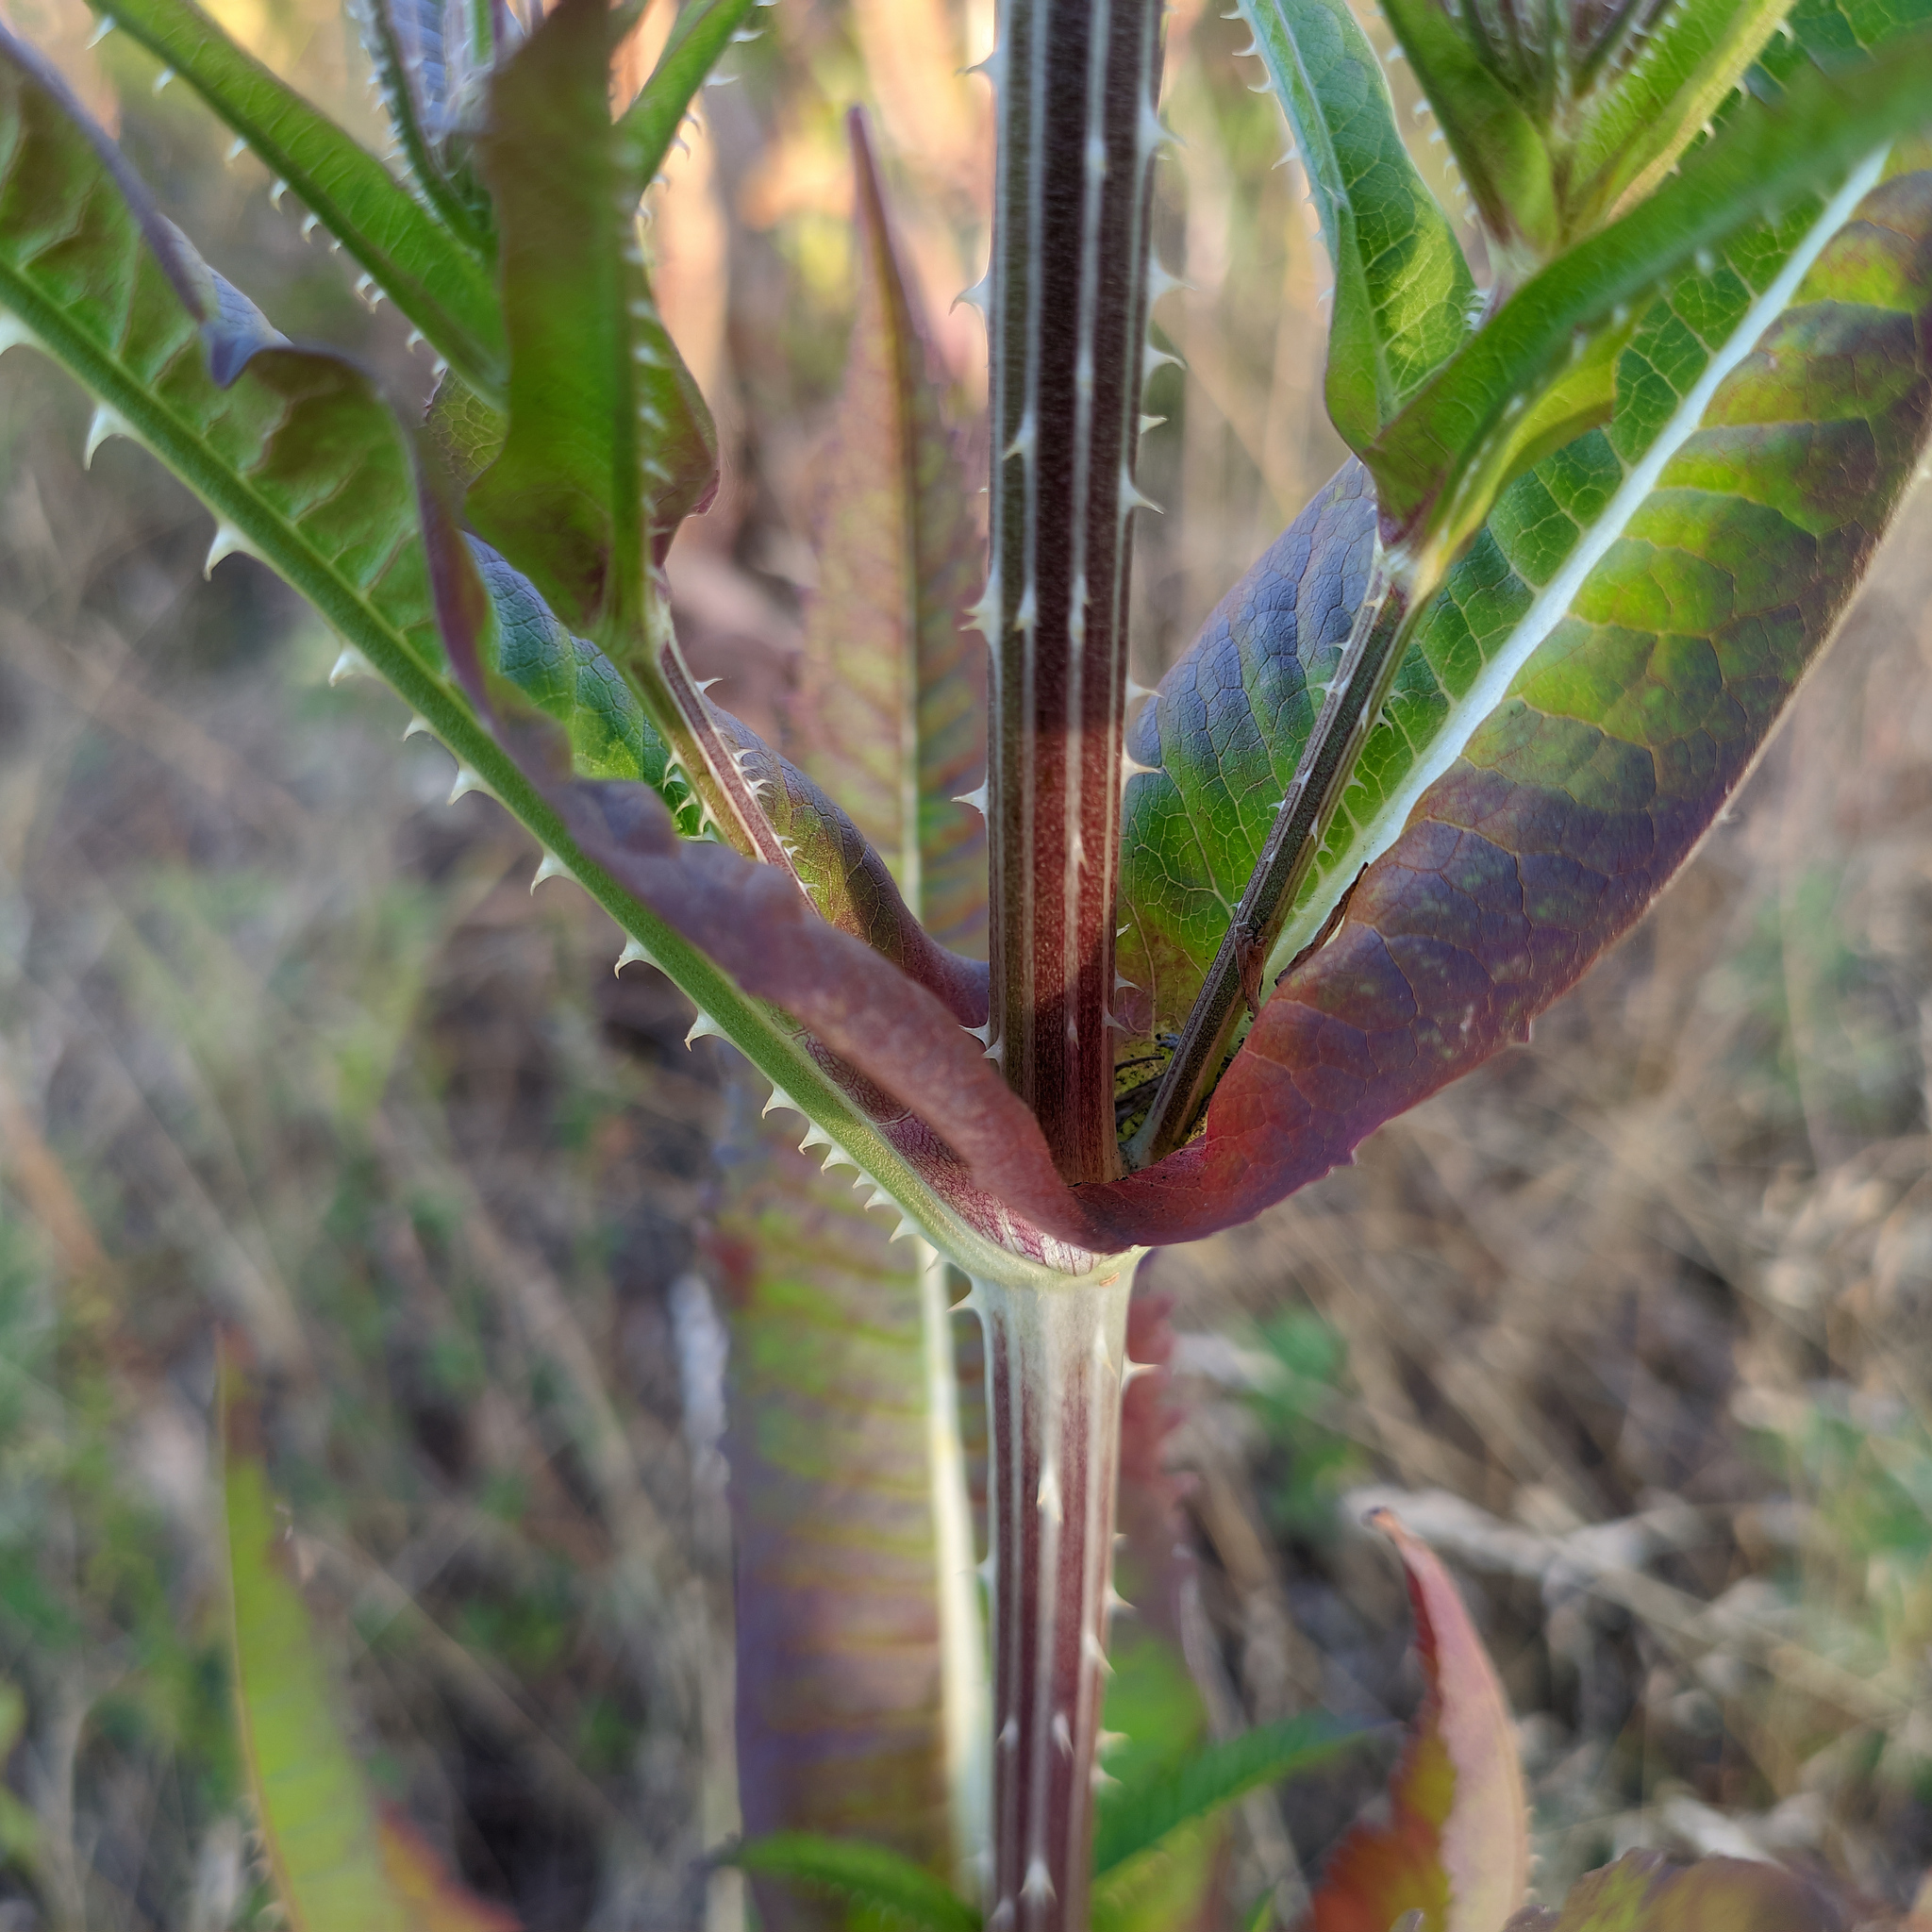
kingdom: Plantae
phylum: Tracheophyta
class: Magnoliopsida
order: Dipsacales
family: Caprifoliaceae
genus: Dipsacus
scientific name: Dipsacus fullonum
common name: Teasel
